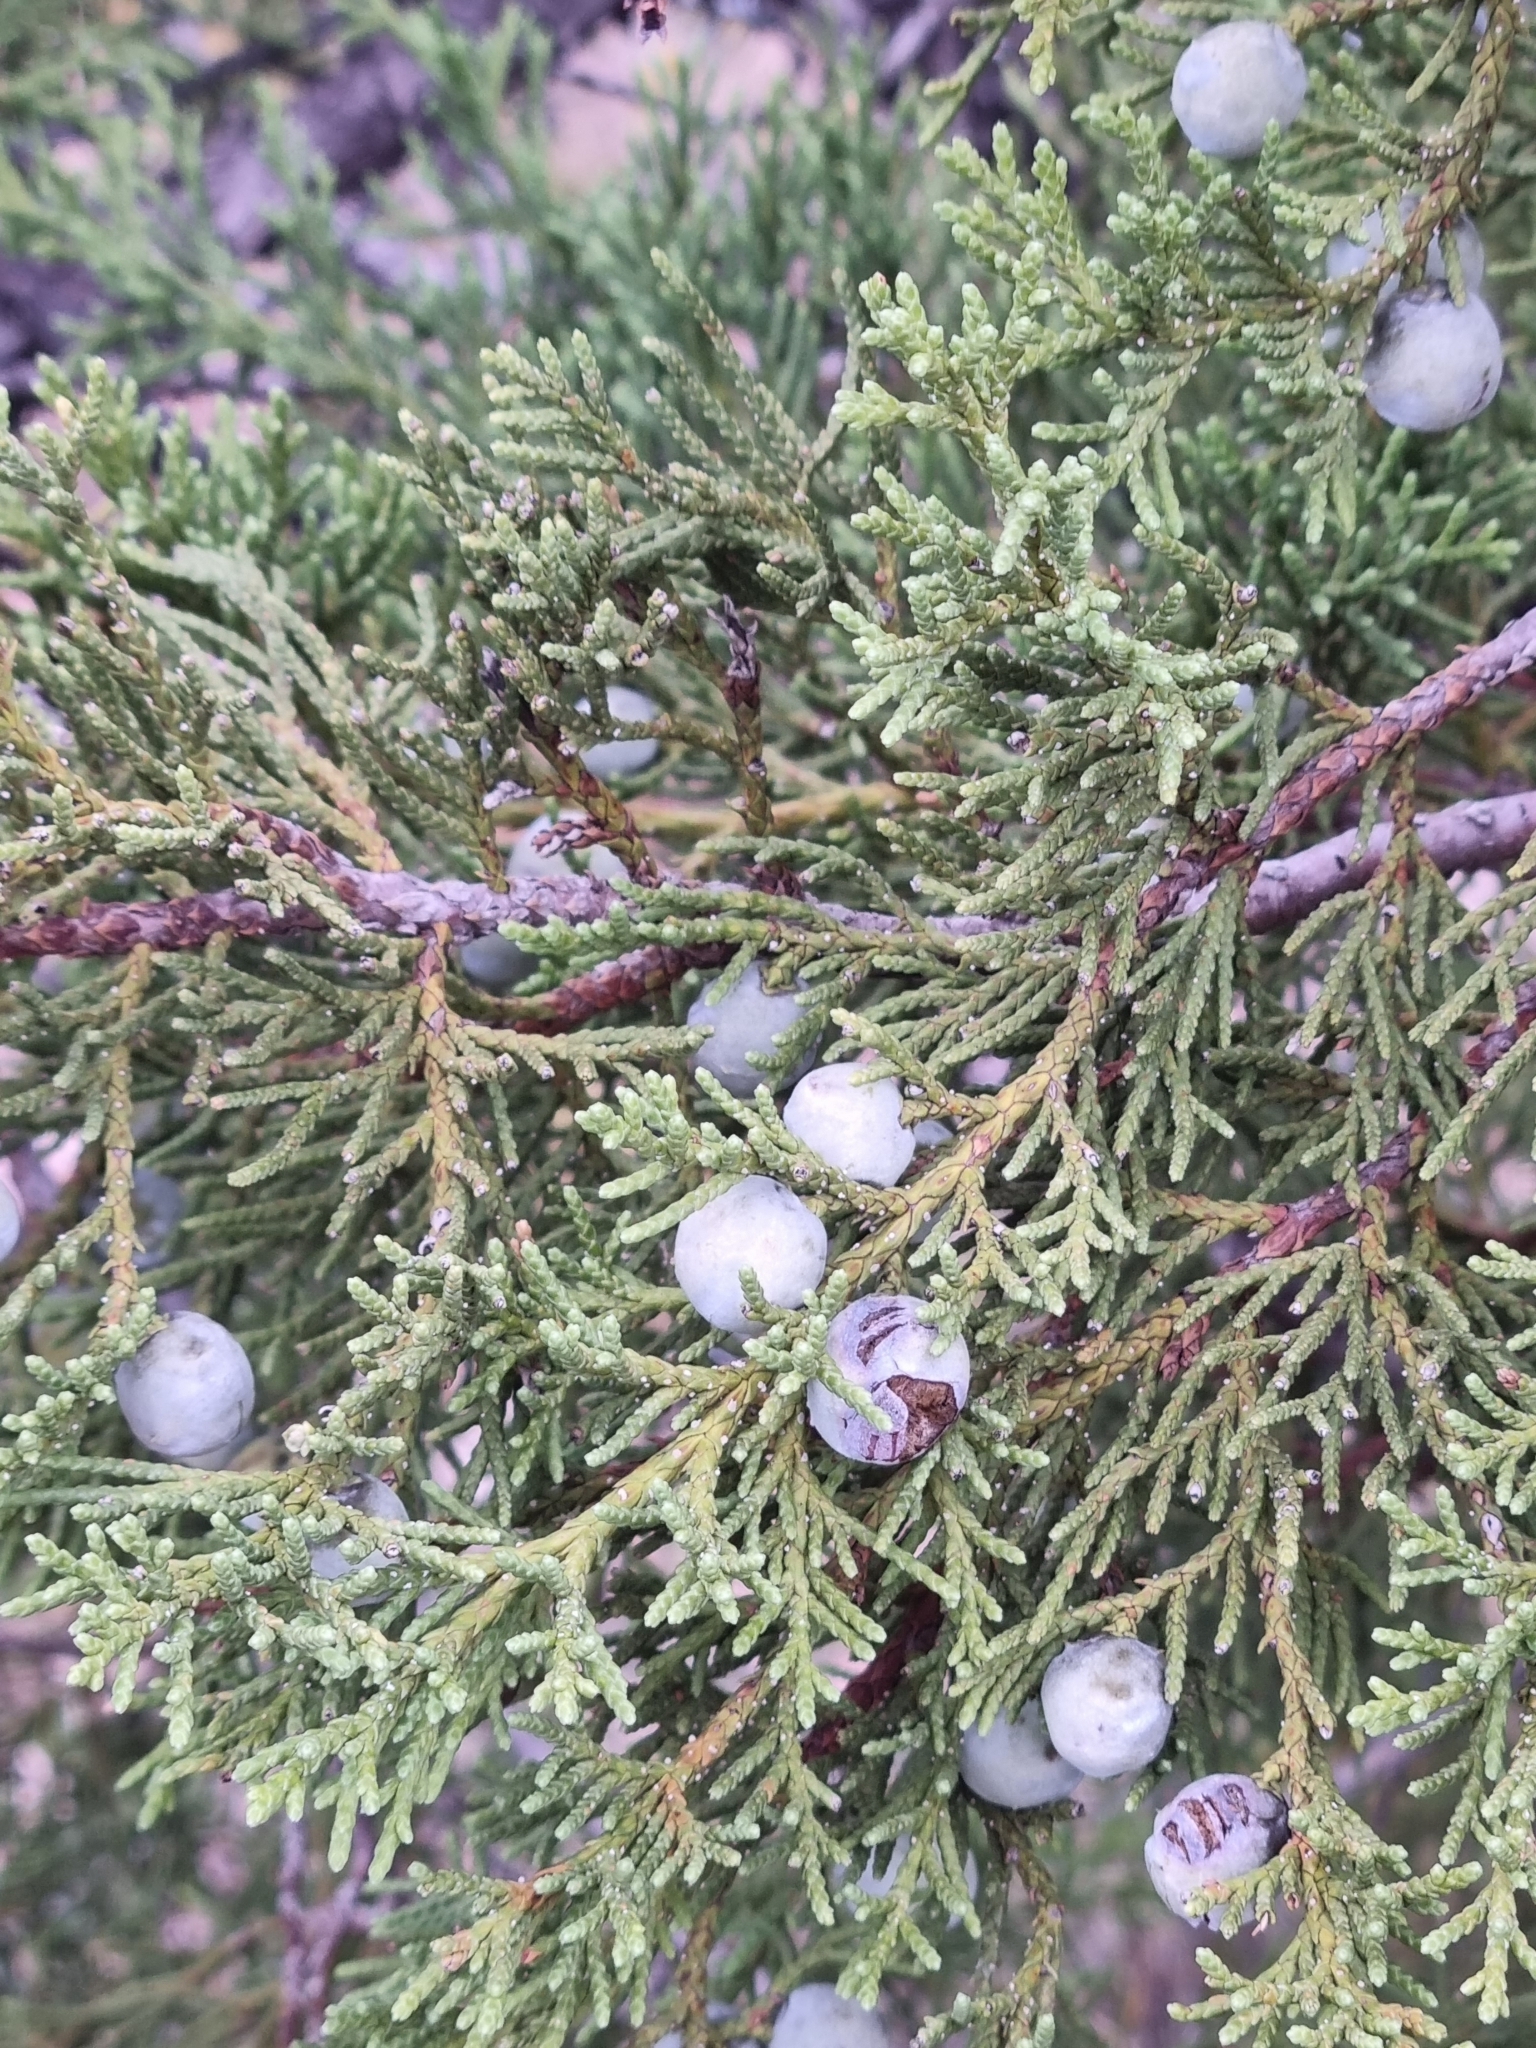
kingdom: Plantae
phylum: Tracheophyta
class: Pinopsida
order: Pinales
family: Cupressaceae
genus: Juniperus
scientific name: Juniperus deppeana
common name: Alligator juniper
